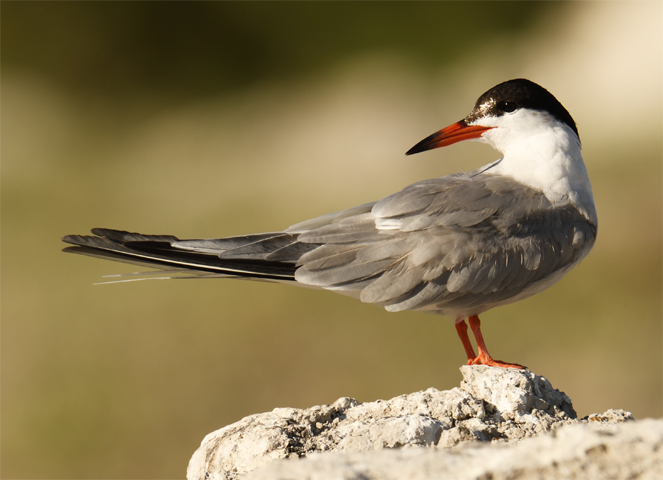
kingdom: Animalia
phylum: Chordata
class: Aves
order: Charadriiformes
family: Laridae
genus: Sterna
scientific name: Sterna hirundo
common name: Common tern
